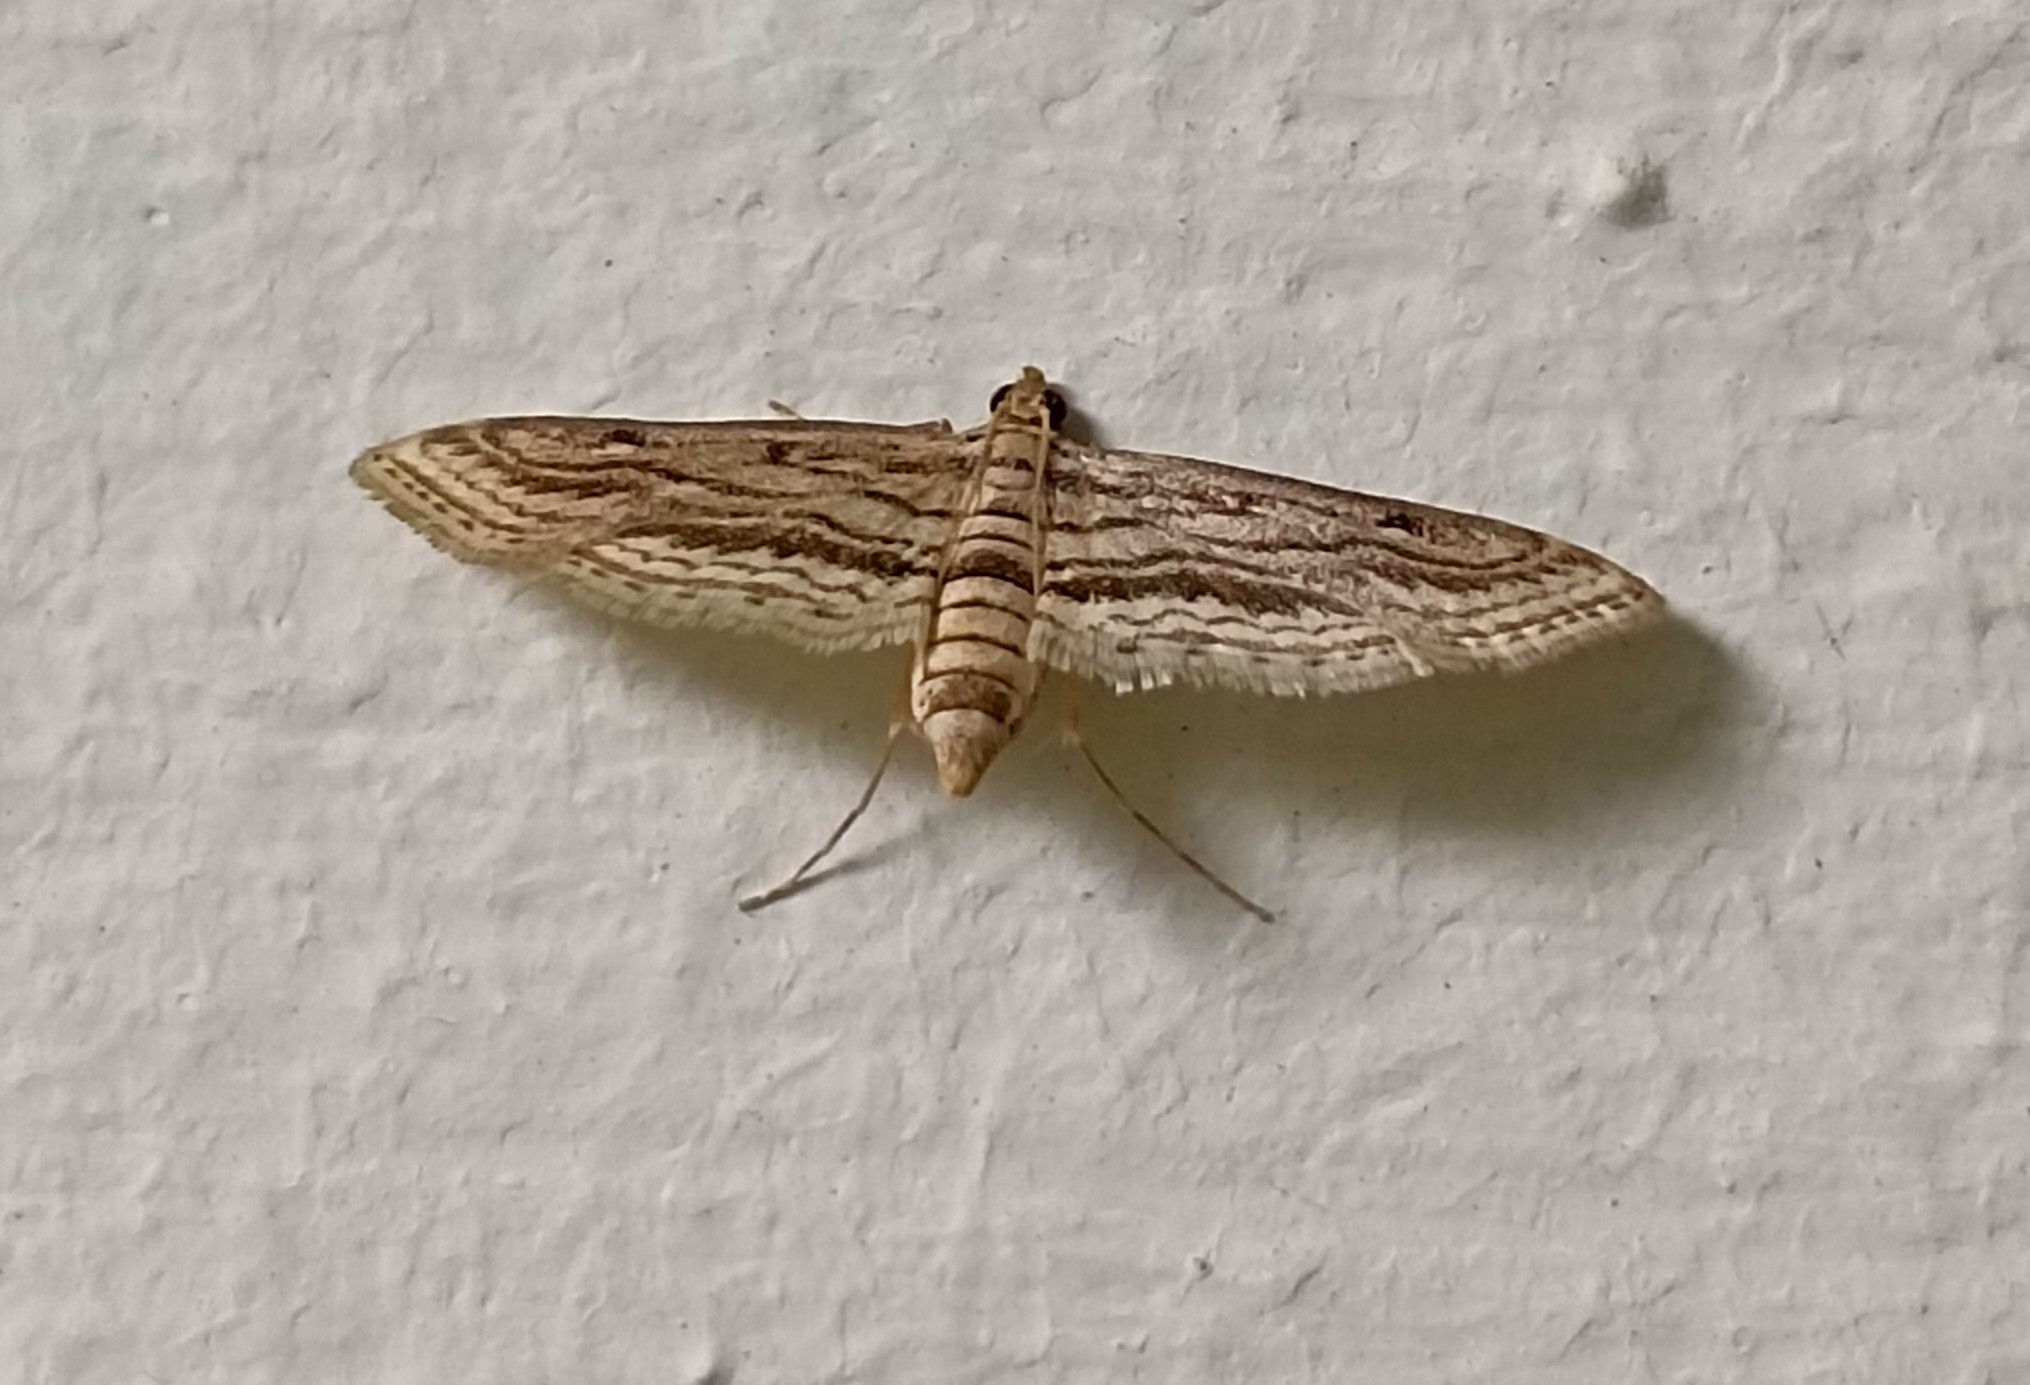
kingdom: Animalia
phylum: Arthropoda
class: Insecta
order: Lepidoptera
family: Crambidae
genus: Parapoynx
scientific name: Parapoynx vittalis
